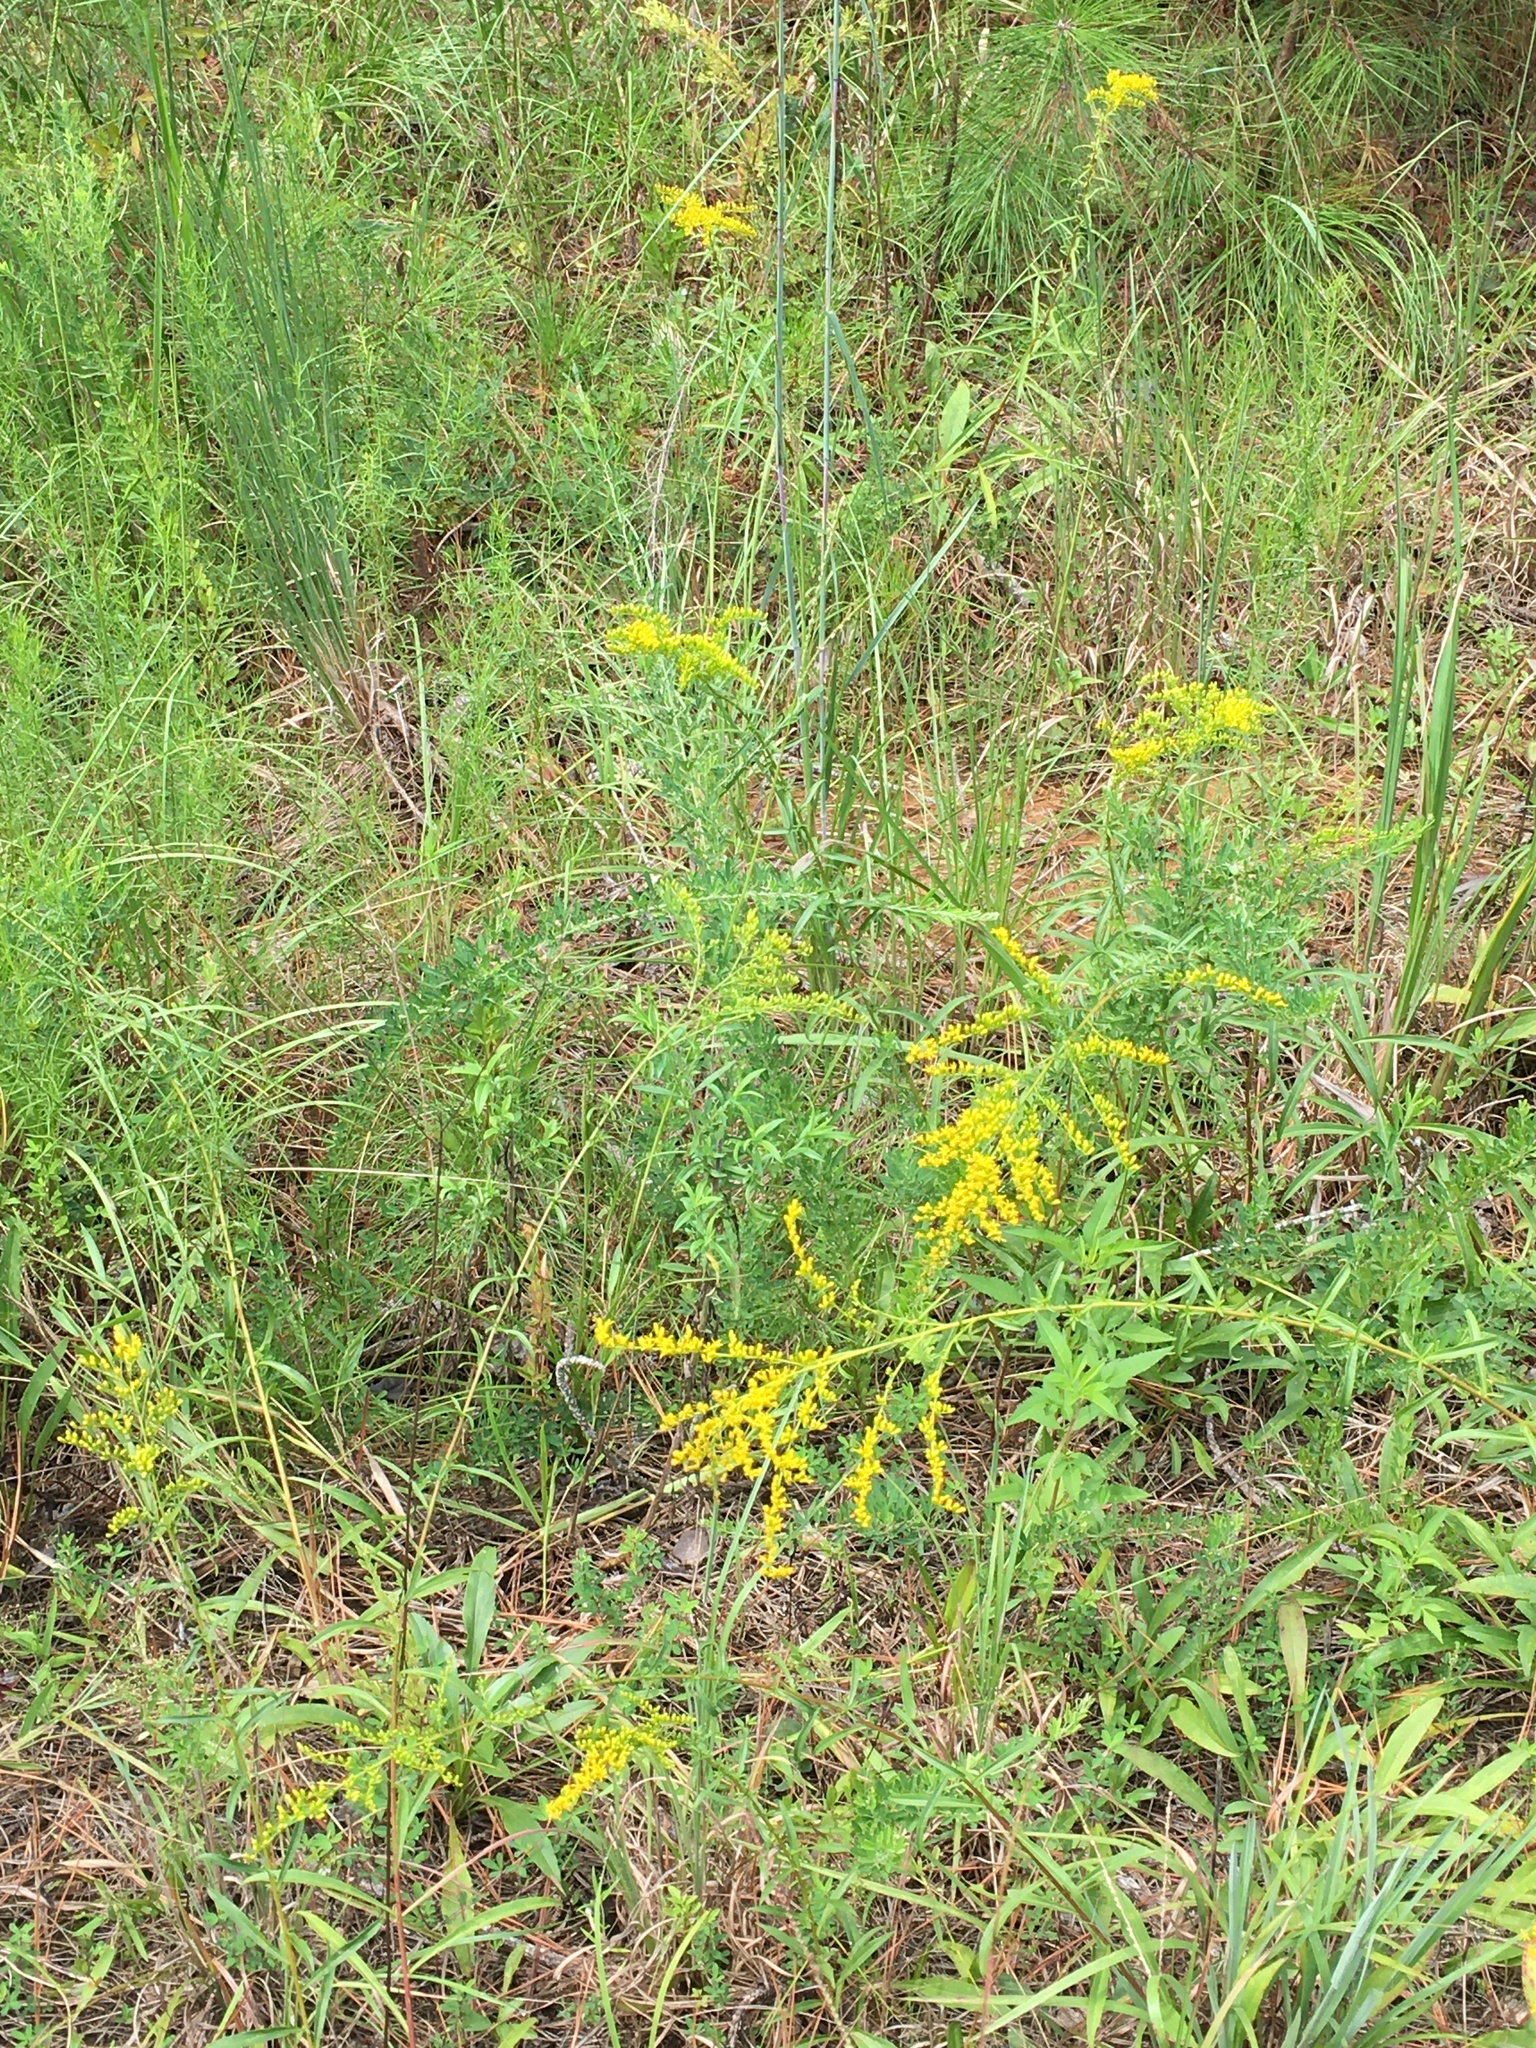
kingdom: Plantae
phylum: Tracheophyta
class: Magnoliopsida
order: Asterales
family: Asteraceae
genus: Solidago
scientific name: Solidago pinetorum
